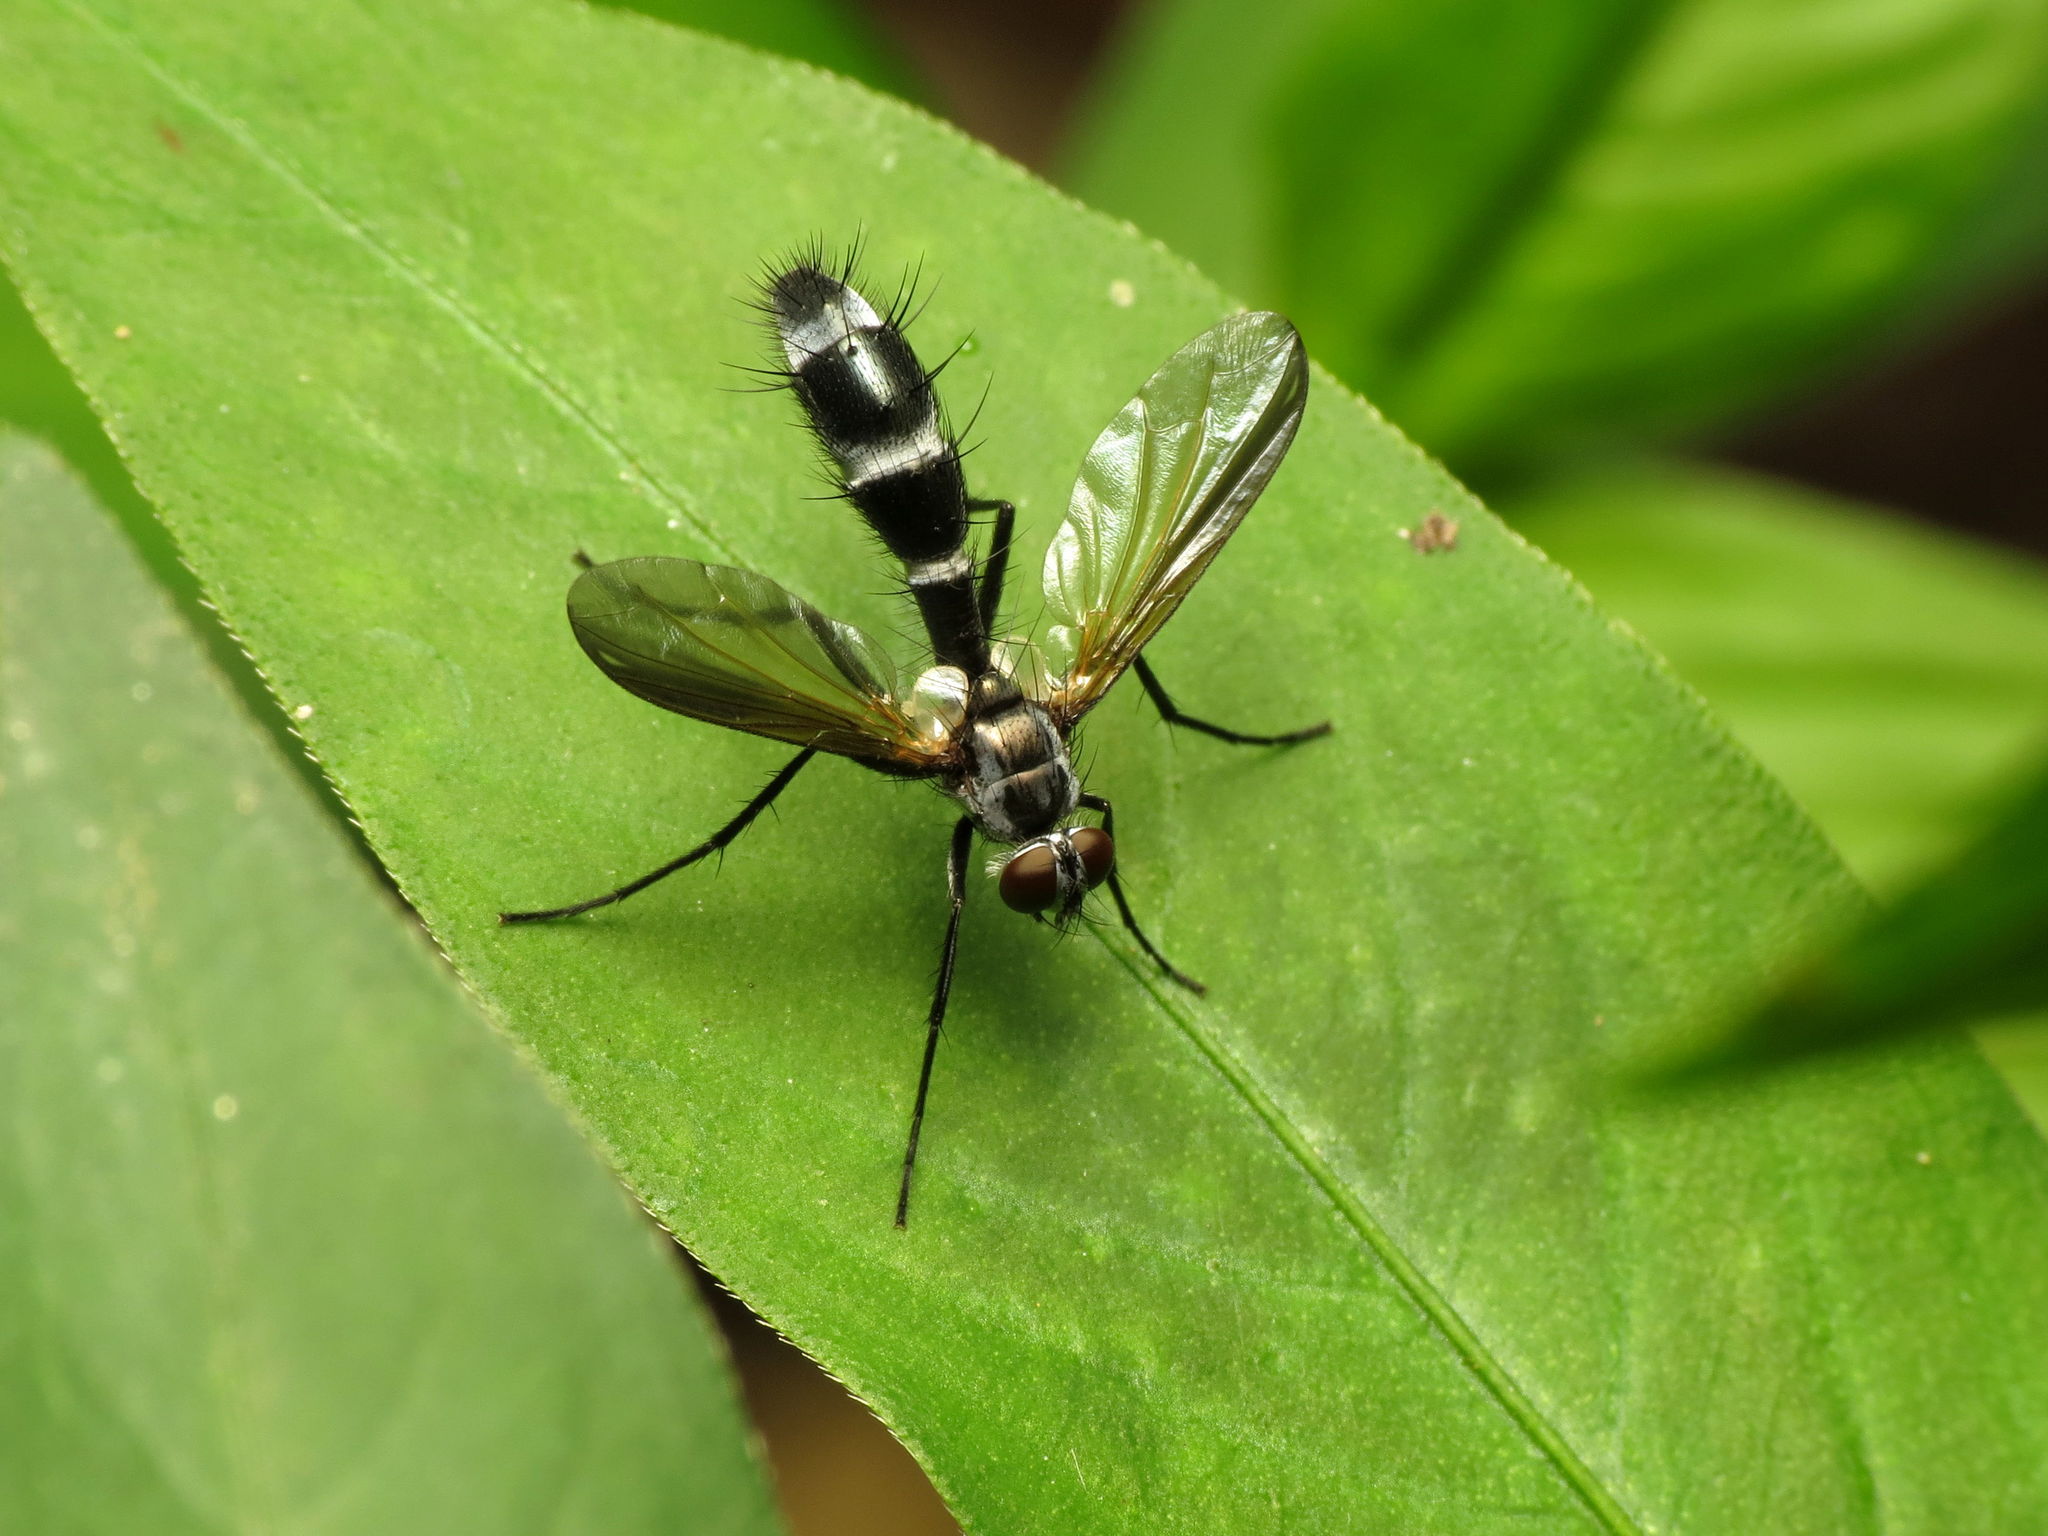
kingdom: Animalia
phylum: Arthropoda
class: Insecta
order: Diptera
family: Tachinidae
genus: Cordyligaster
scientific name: Cordyligaster septentrionalis
